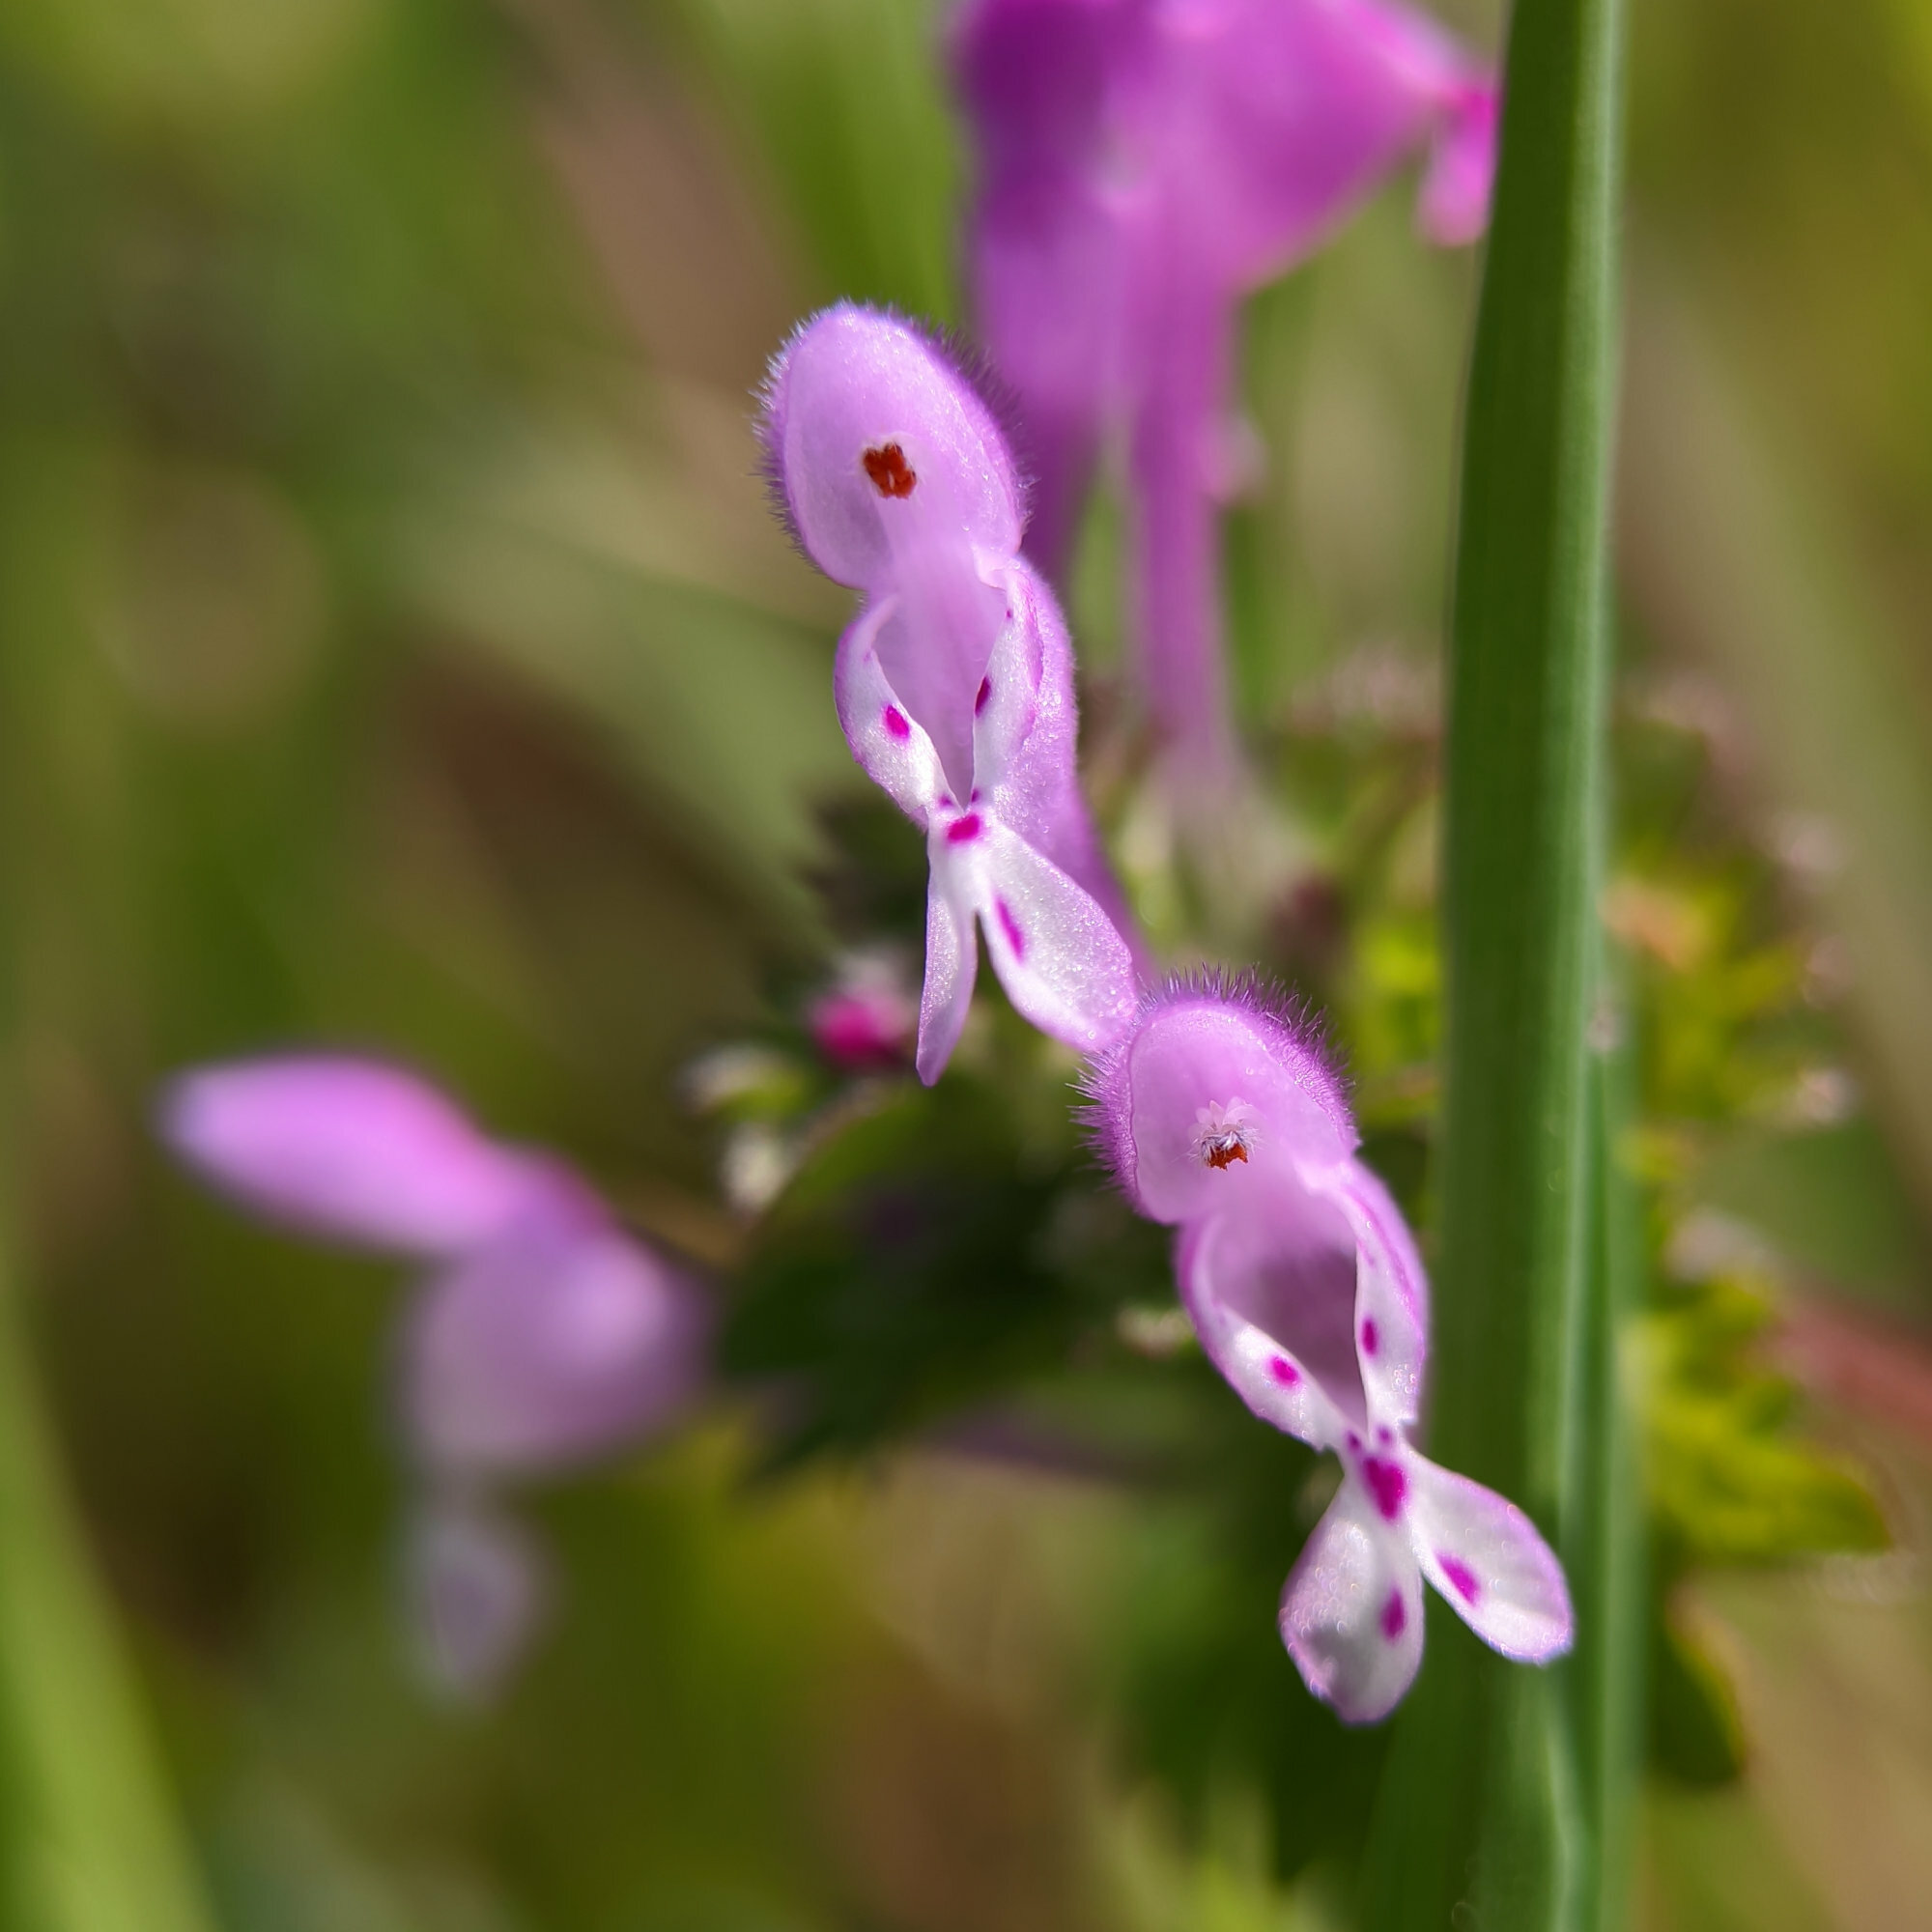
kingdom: Plantae
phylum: Tracheophyta
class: Magnoliopsida
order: Lamiales
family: Lamiaceae
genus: Lamium
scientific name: Lamium amplexicaule
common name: Henbit dead-nettle
